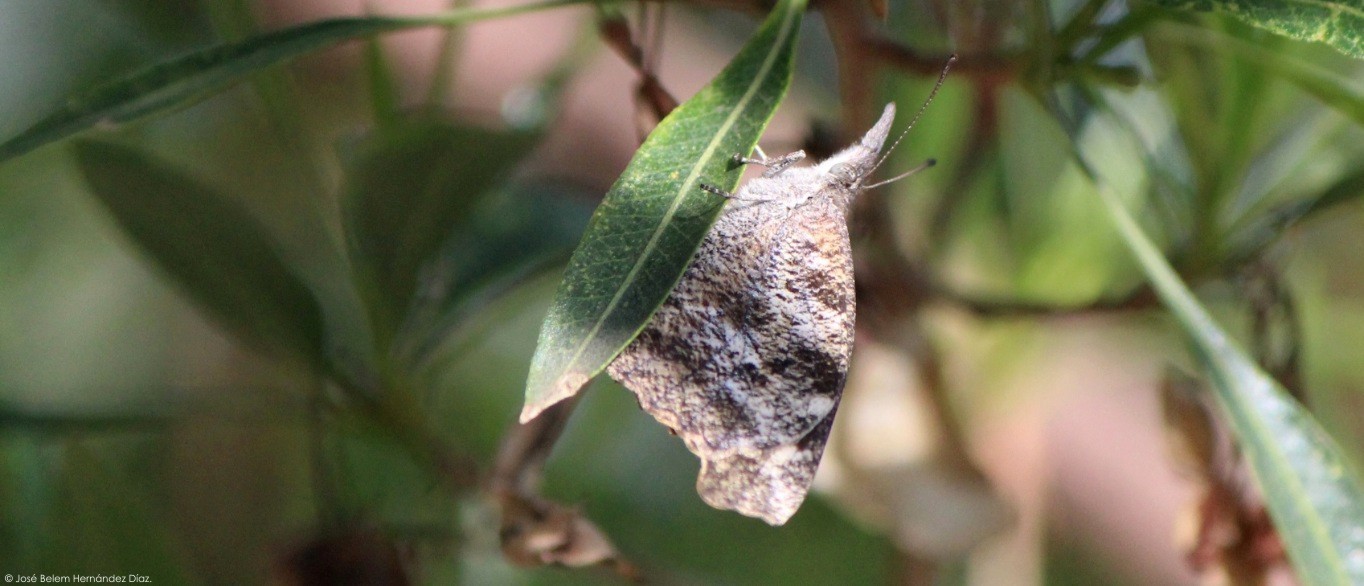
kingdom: Animalia
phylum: Arthropoda
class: Insecta
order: Lepidoptera
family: Nymphalidae
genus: Libytheana
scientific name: Libytheana carinenta
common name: American snout
